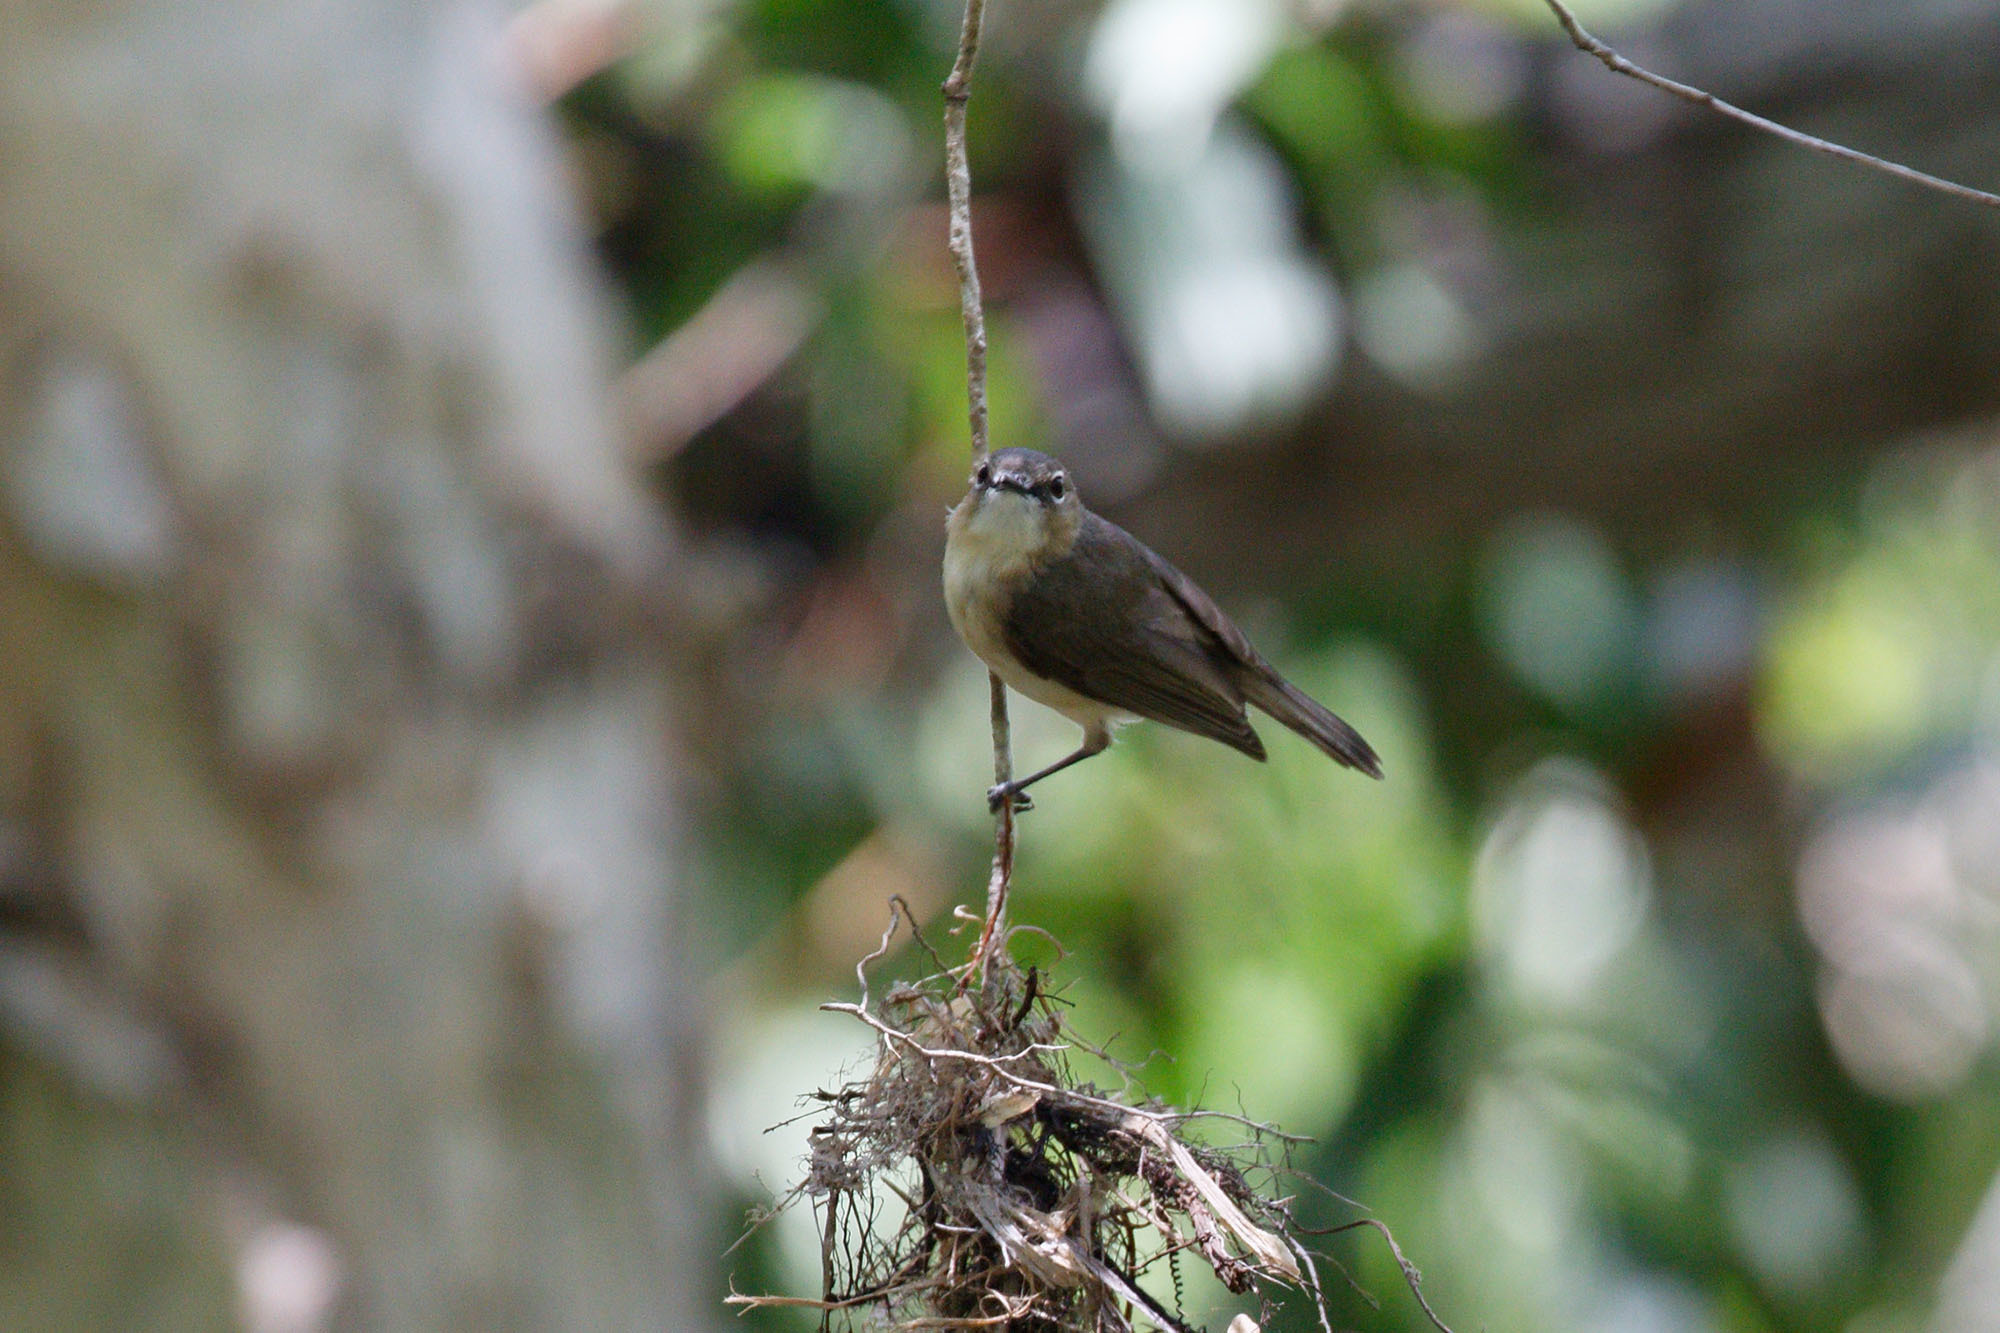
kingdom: Animalia
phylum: Chordata
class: Aves
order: Passeriformes
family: Acanthizidae
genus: Gerygone
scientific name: Gerygone magnirostris
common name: Large-billed gerygone
